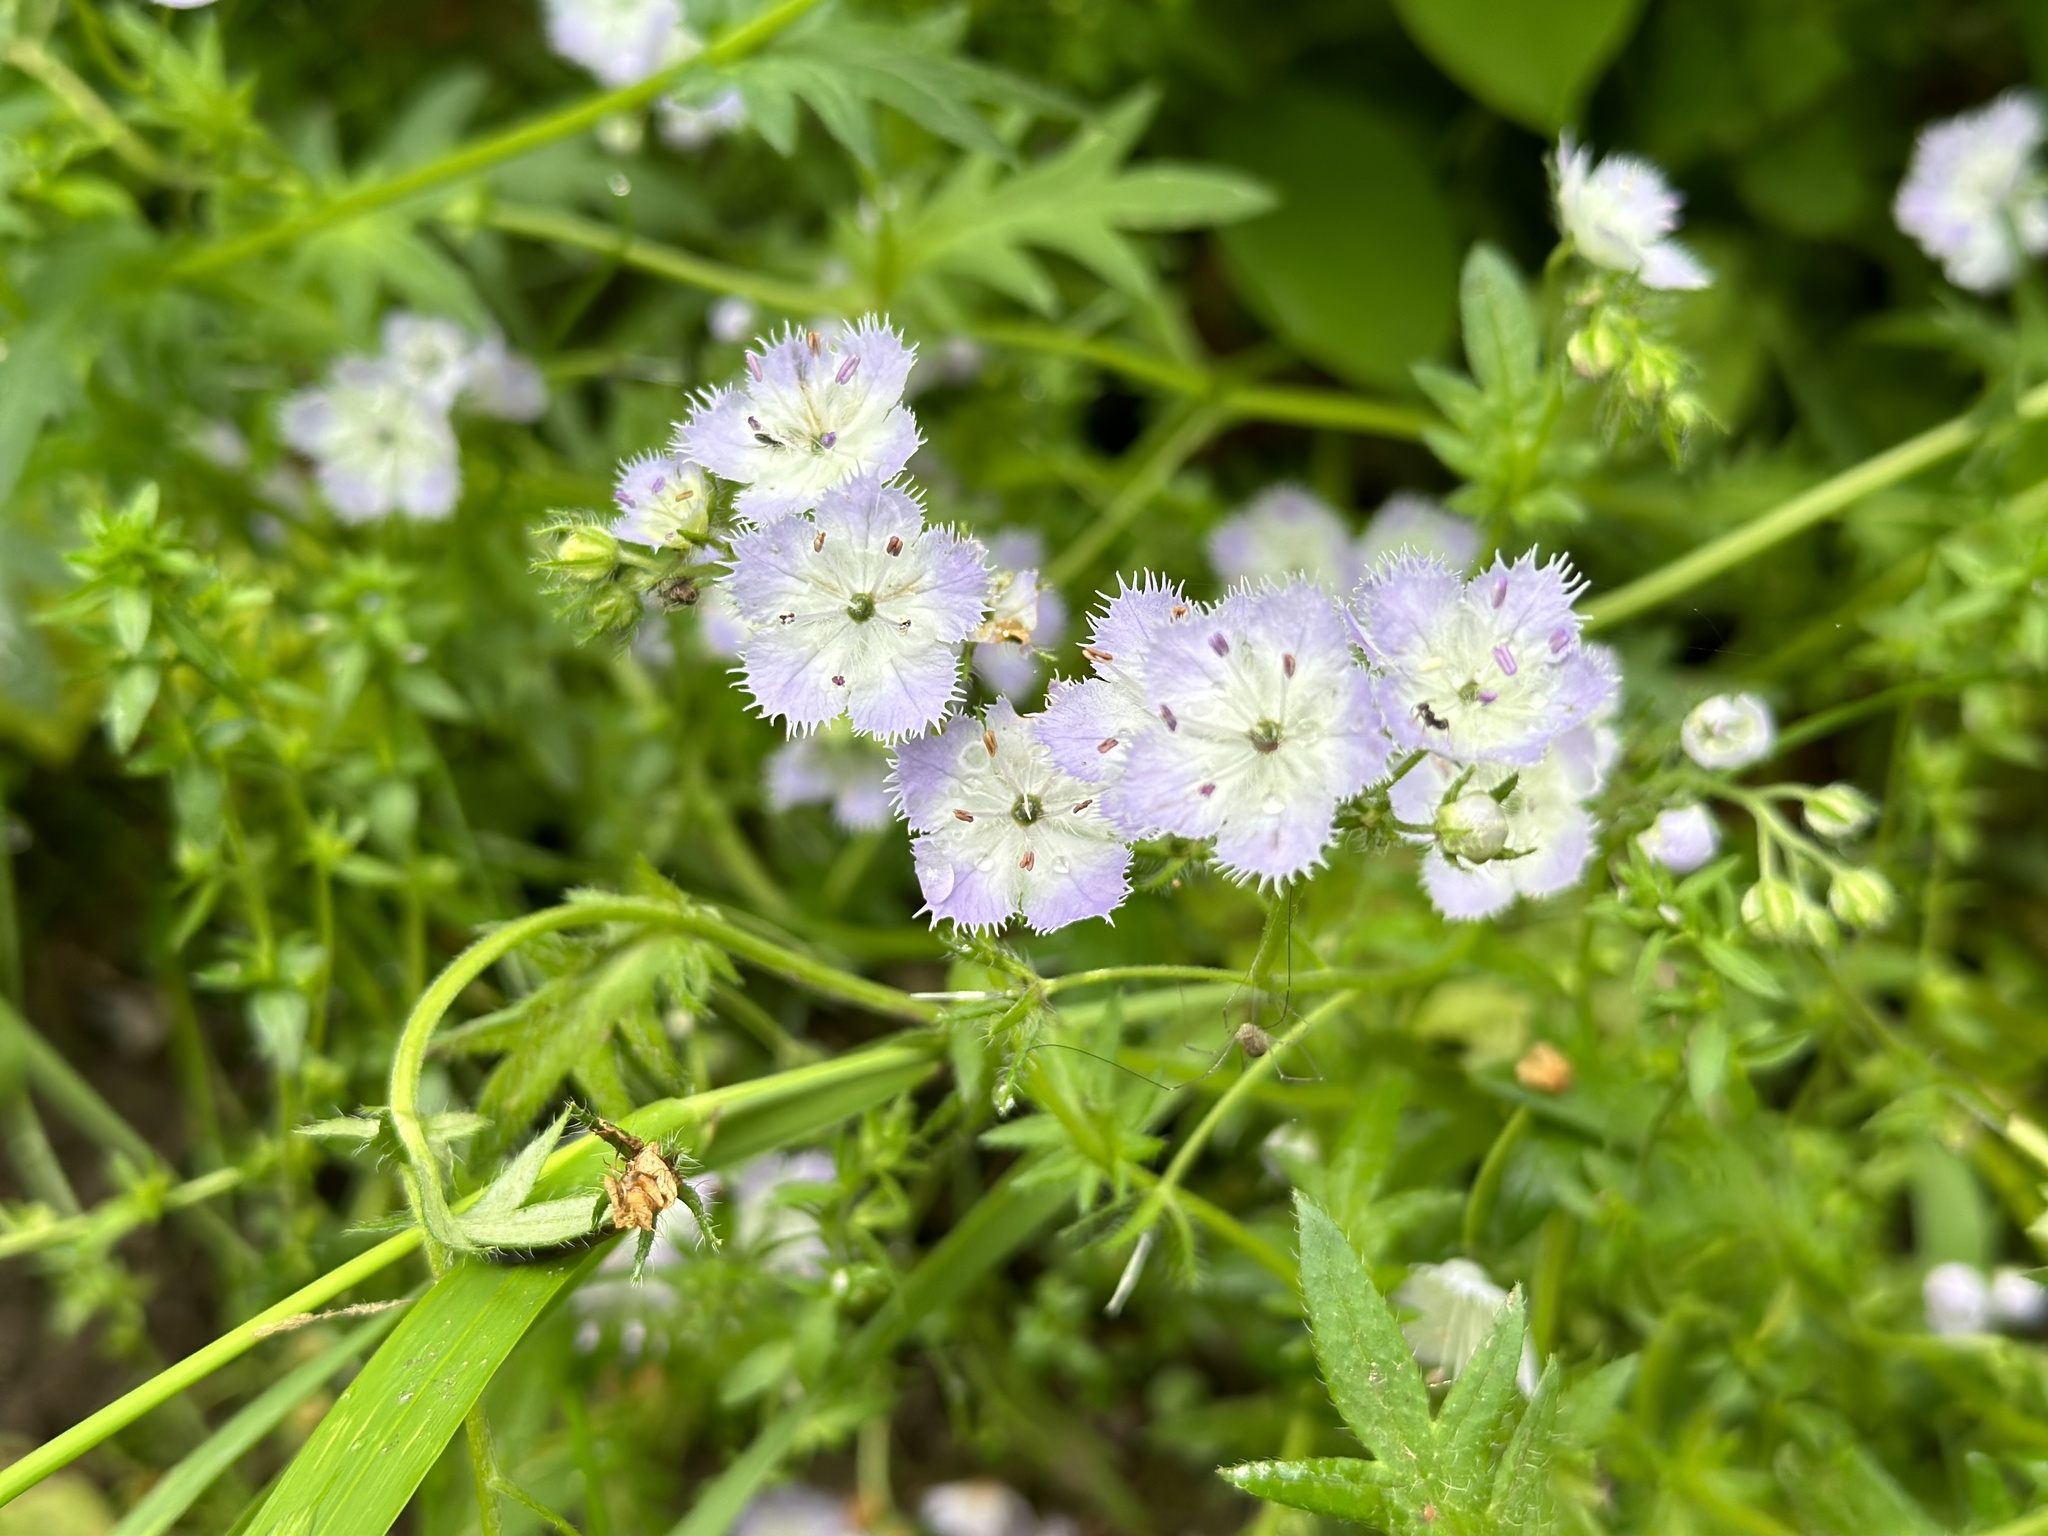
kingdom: Plantae
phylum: Tracheophyta
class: Magnoliopsida
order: Boraginales
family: Hydrophyllaceae
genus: Phacelia
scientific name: Phacelia purshii
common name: Miami-mist
